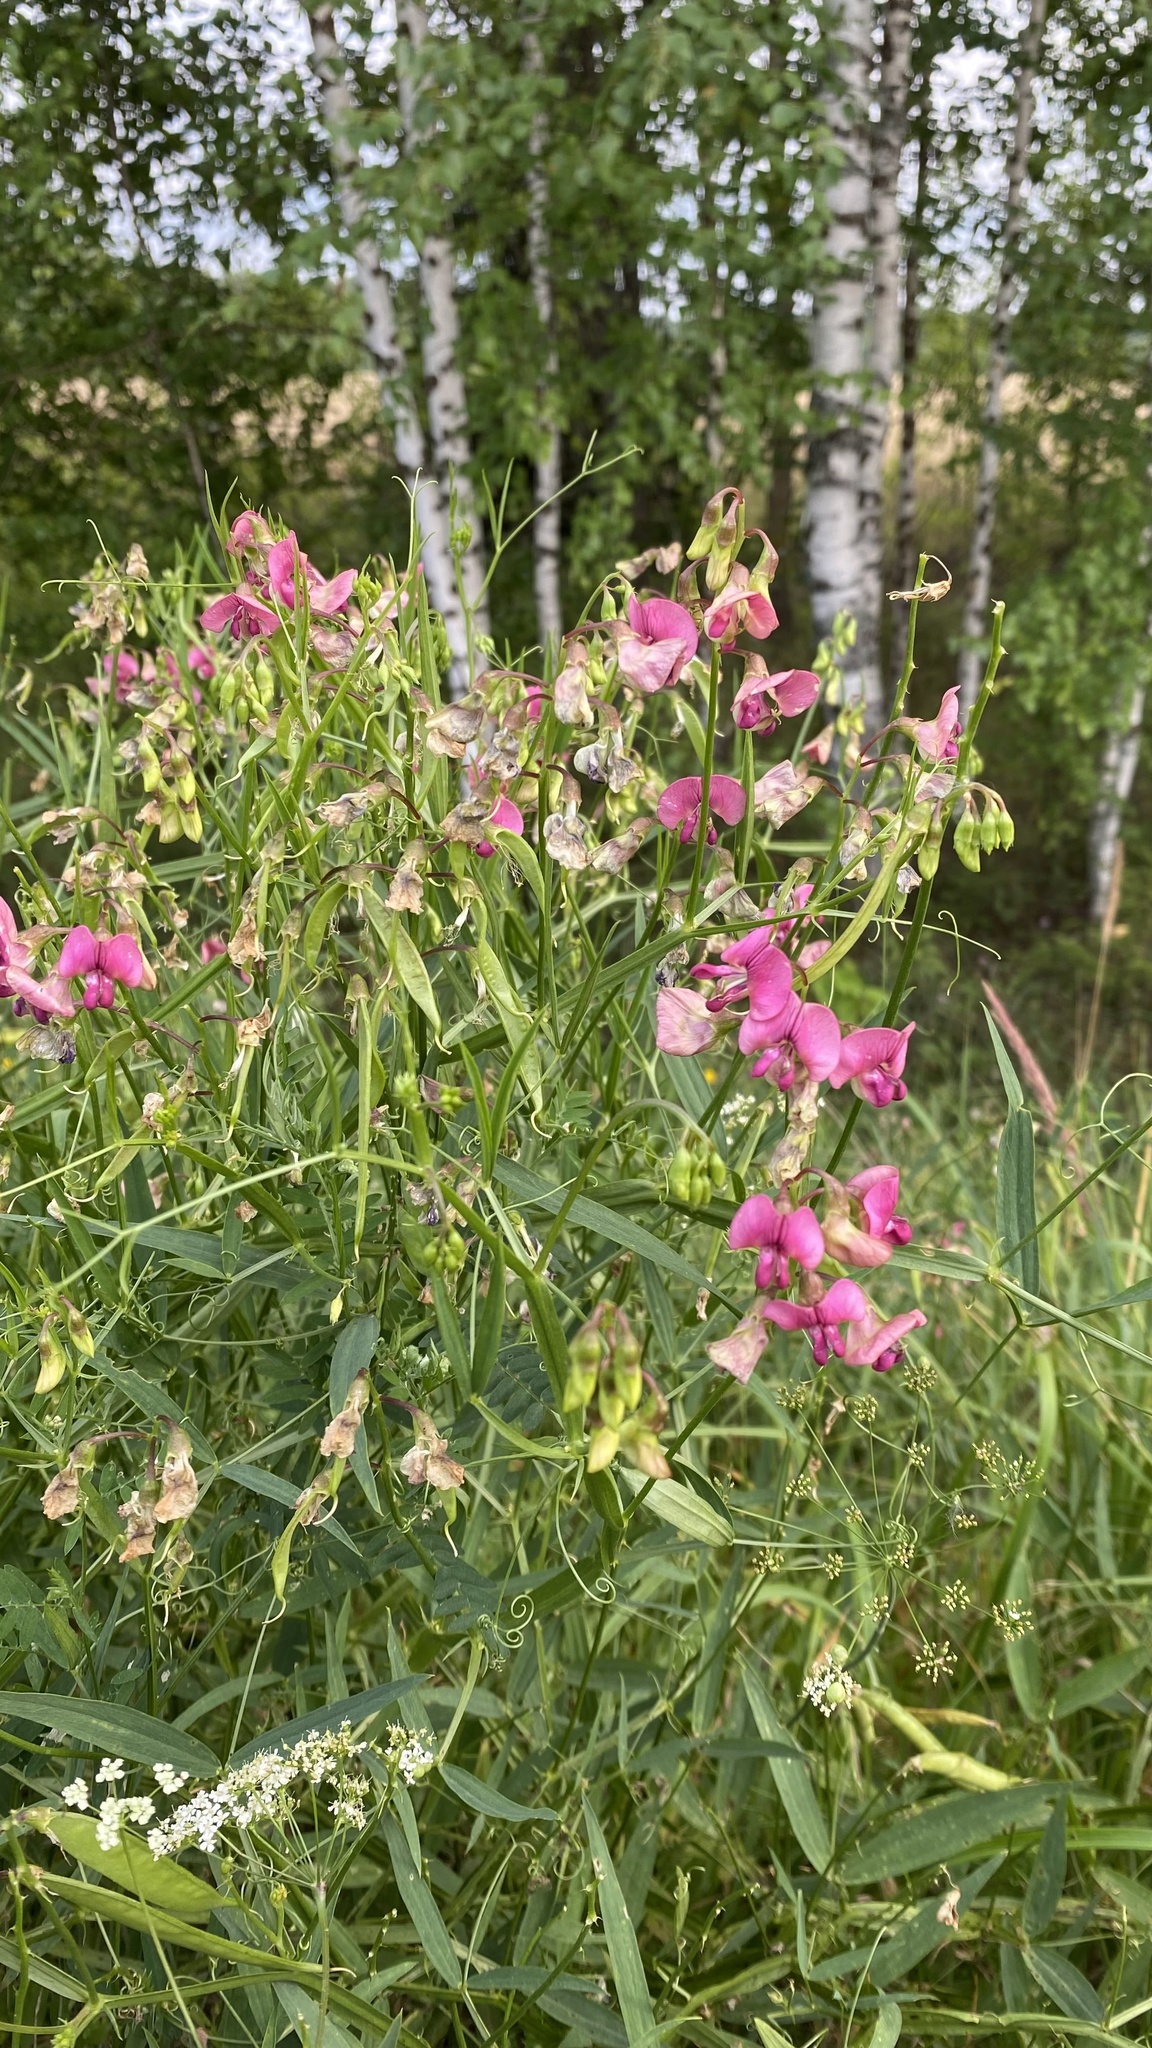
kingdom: Plantae
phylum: Tracheophyta
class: Magnoliopsida
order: Fabales
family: Fabaceae
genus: Lathyrus
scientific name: Lathyrus sylvestris
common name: Flat pea
